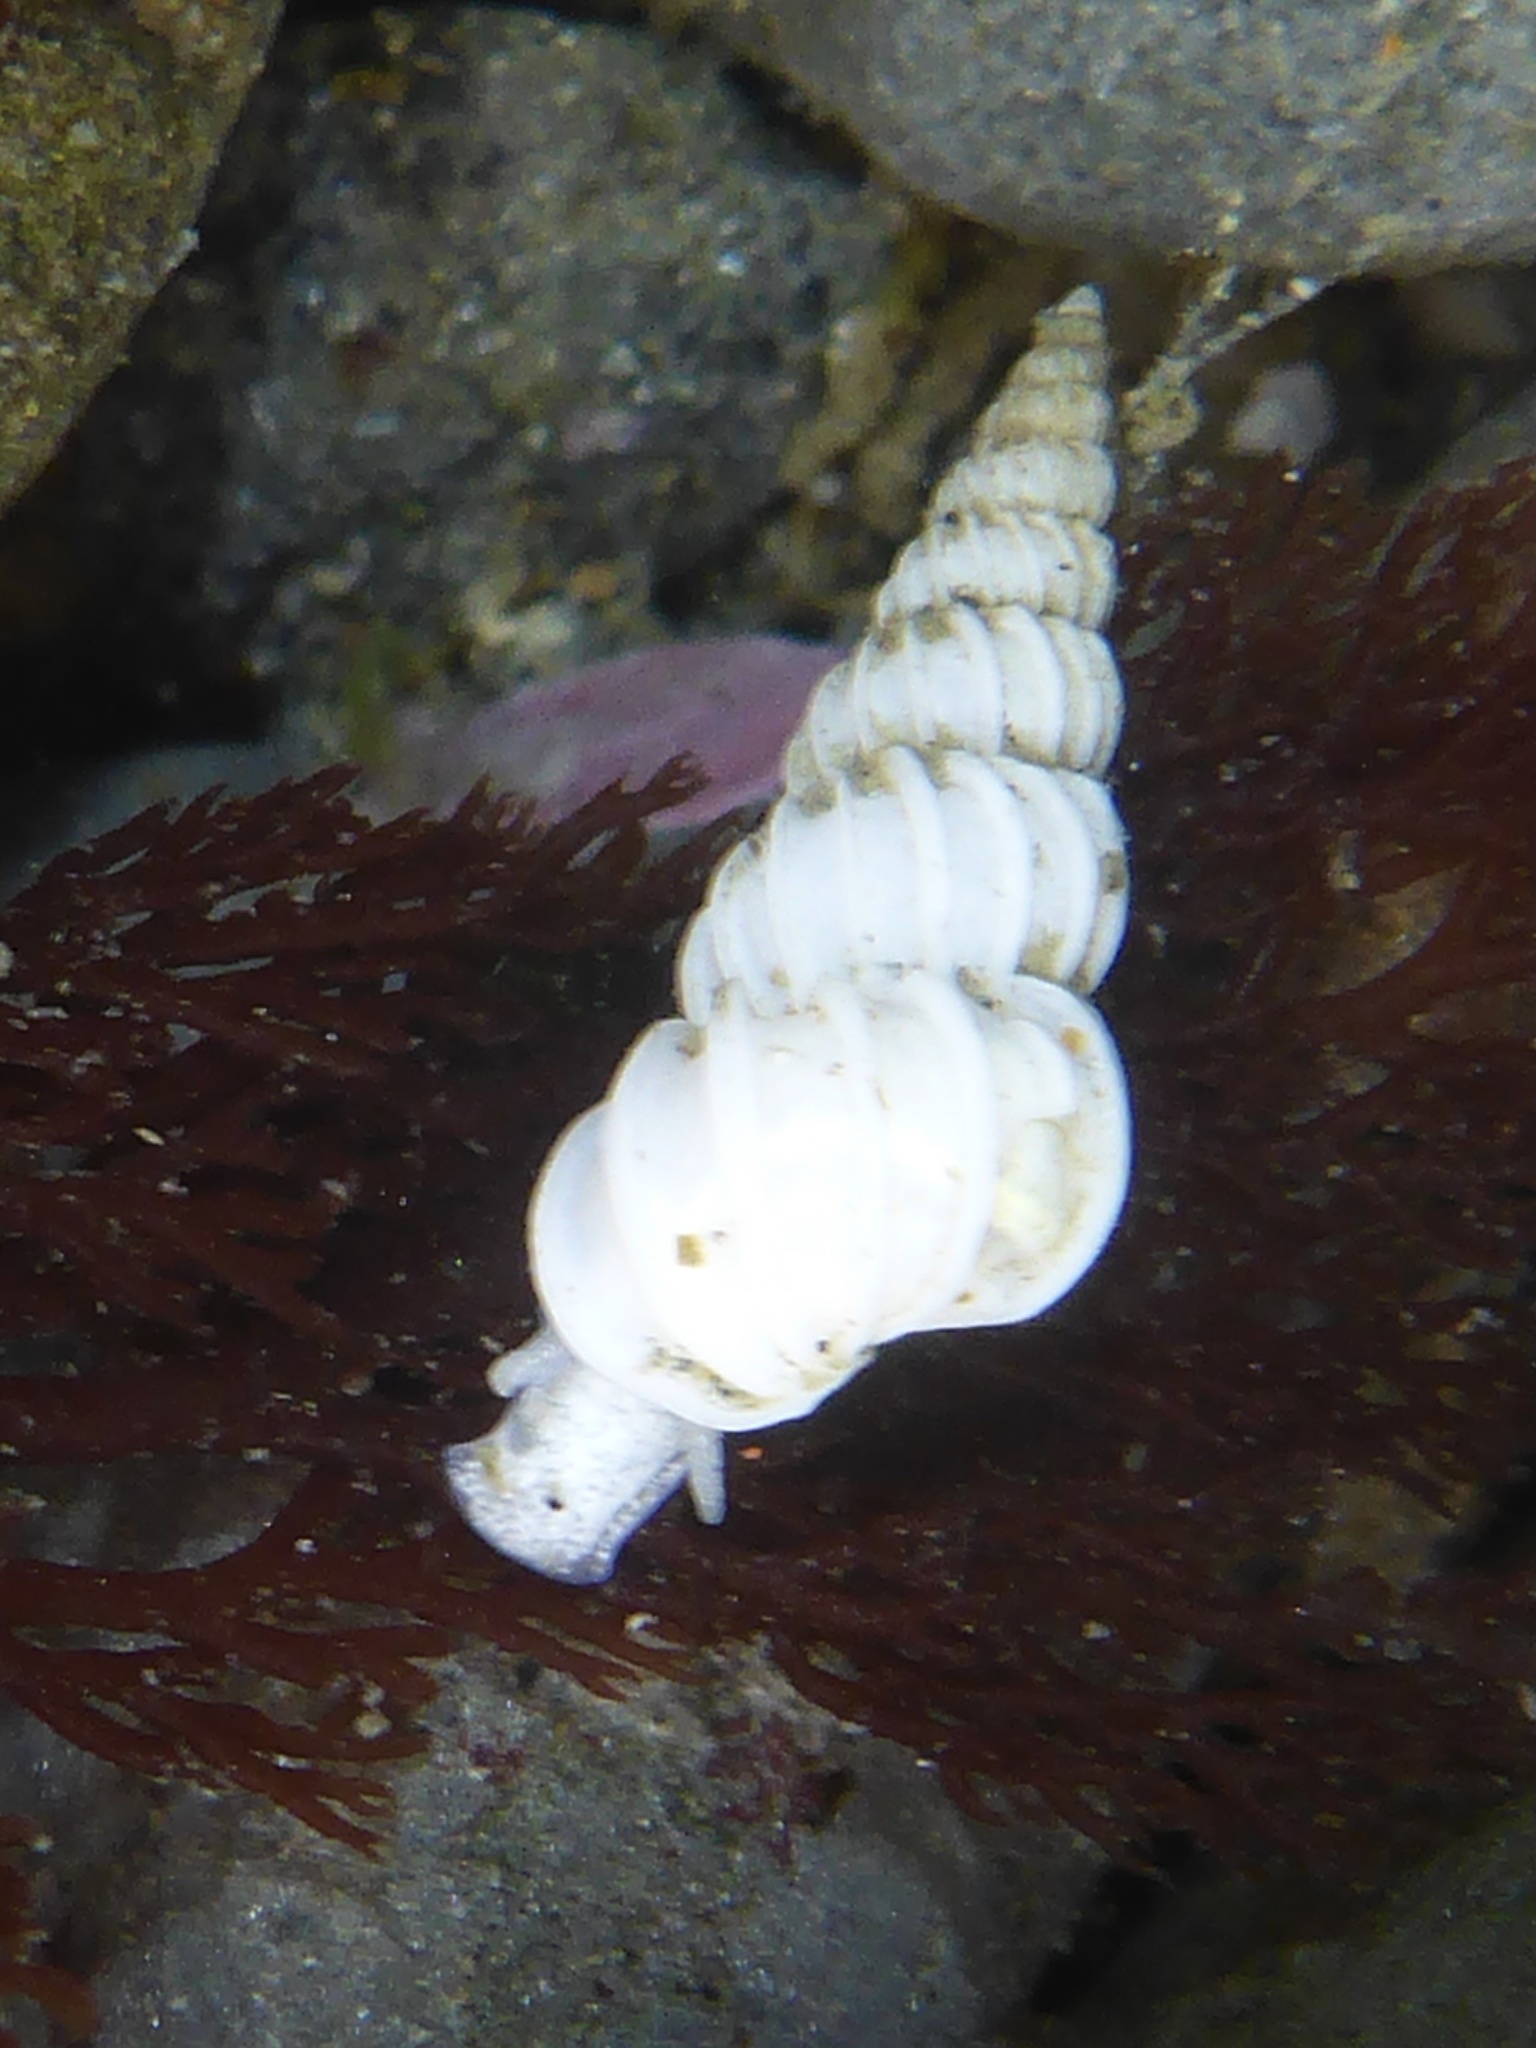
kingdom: Animalia
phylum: Mollusca
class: Gastropoda
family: Epitoniidae
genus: Epitonium
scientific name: Epitonium tinctum
